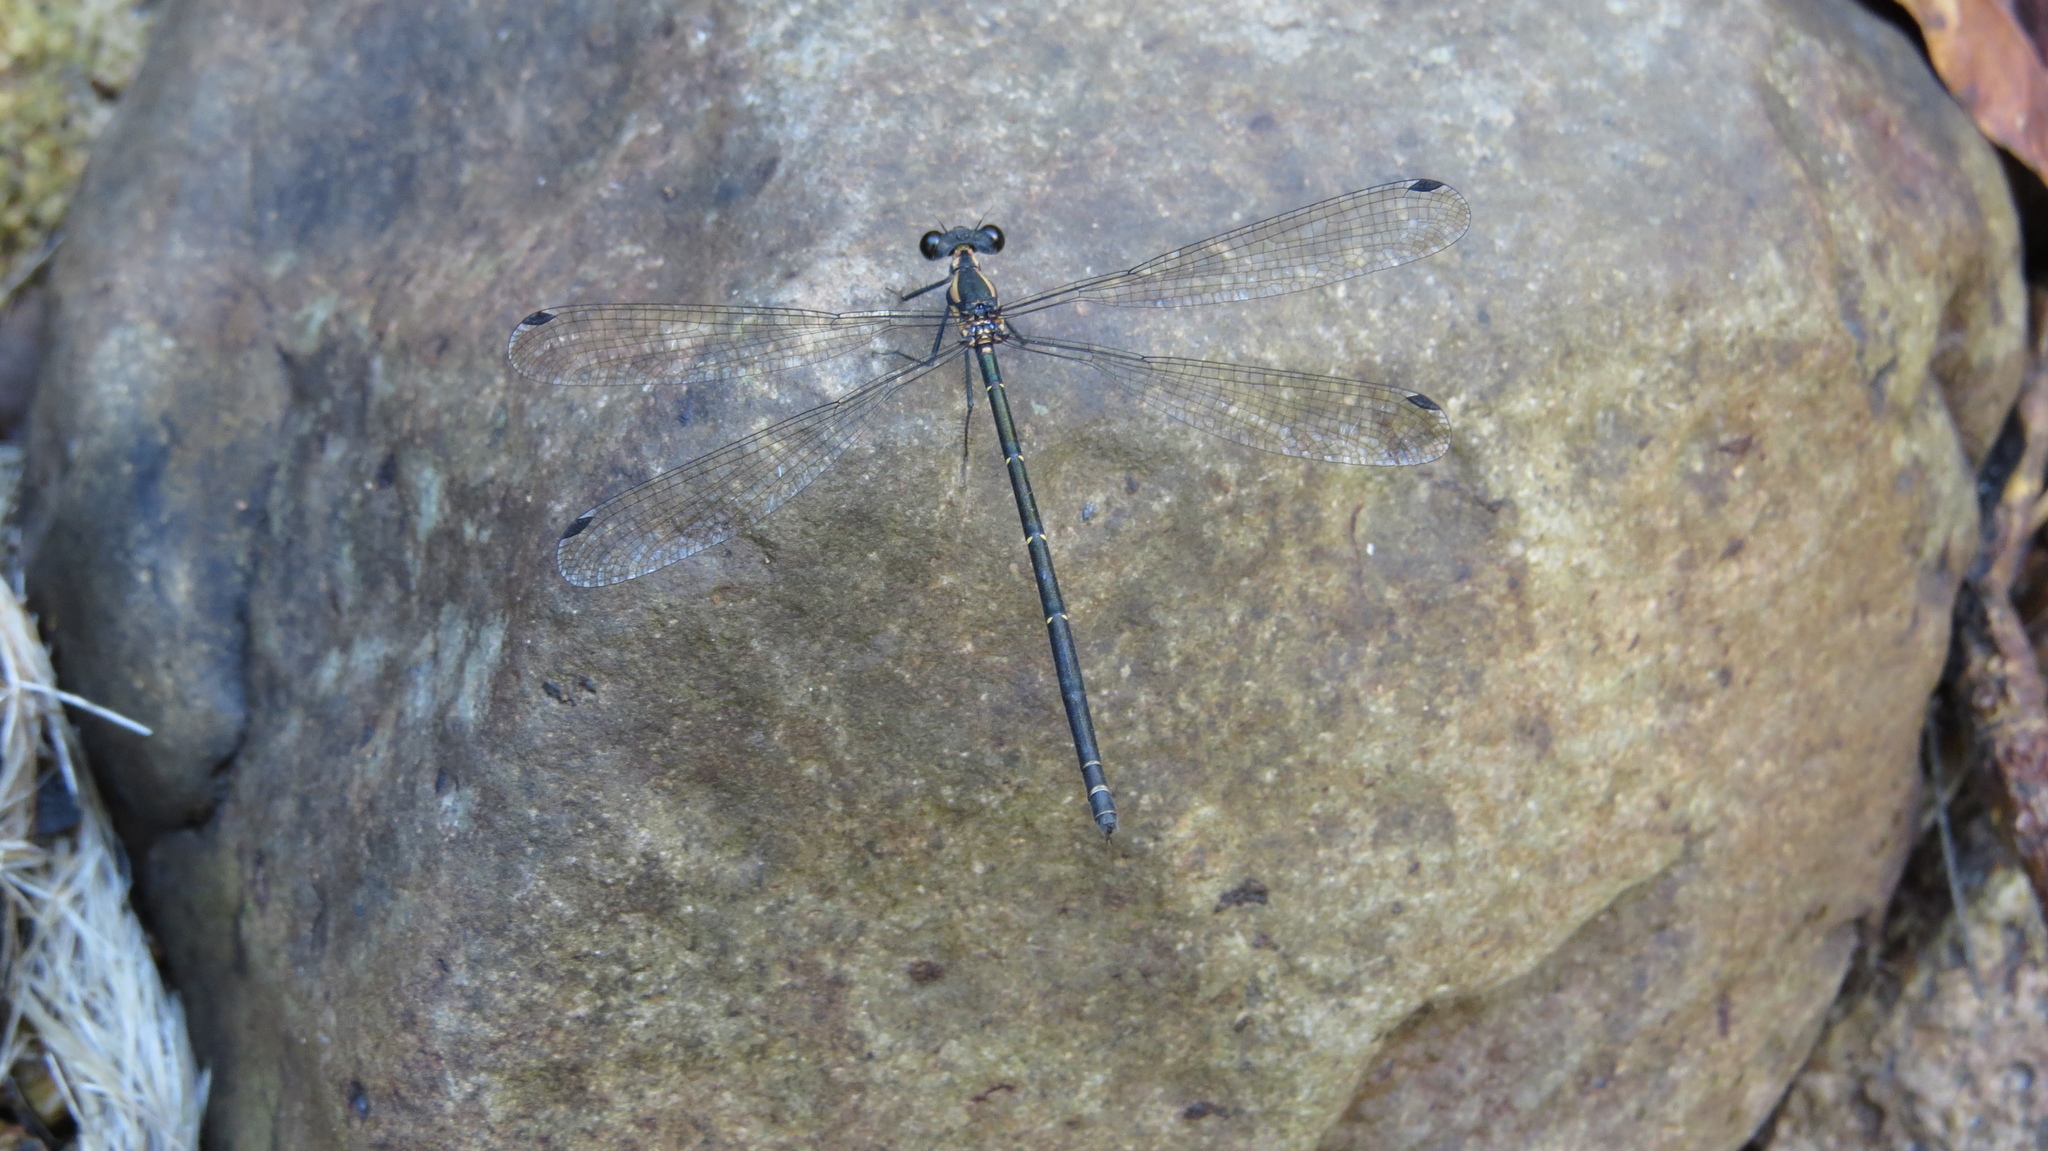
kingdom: Animalia
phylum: Arthropoda
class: Insecta
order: Odonata
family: Argiolestidae
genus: Austroargiolestes
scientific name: Austroargiolestes icteromelas
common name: Common flatwing
